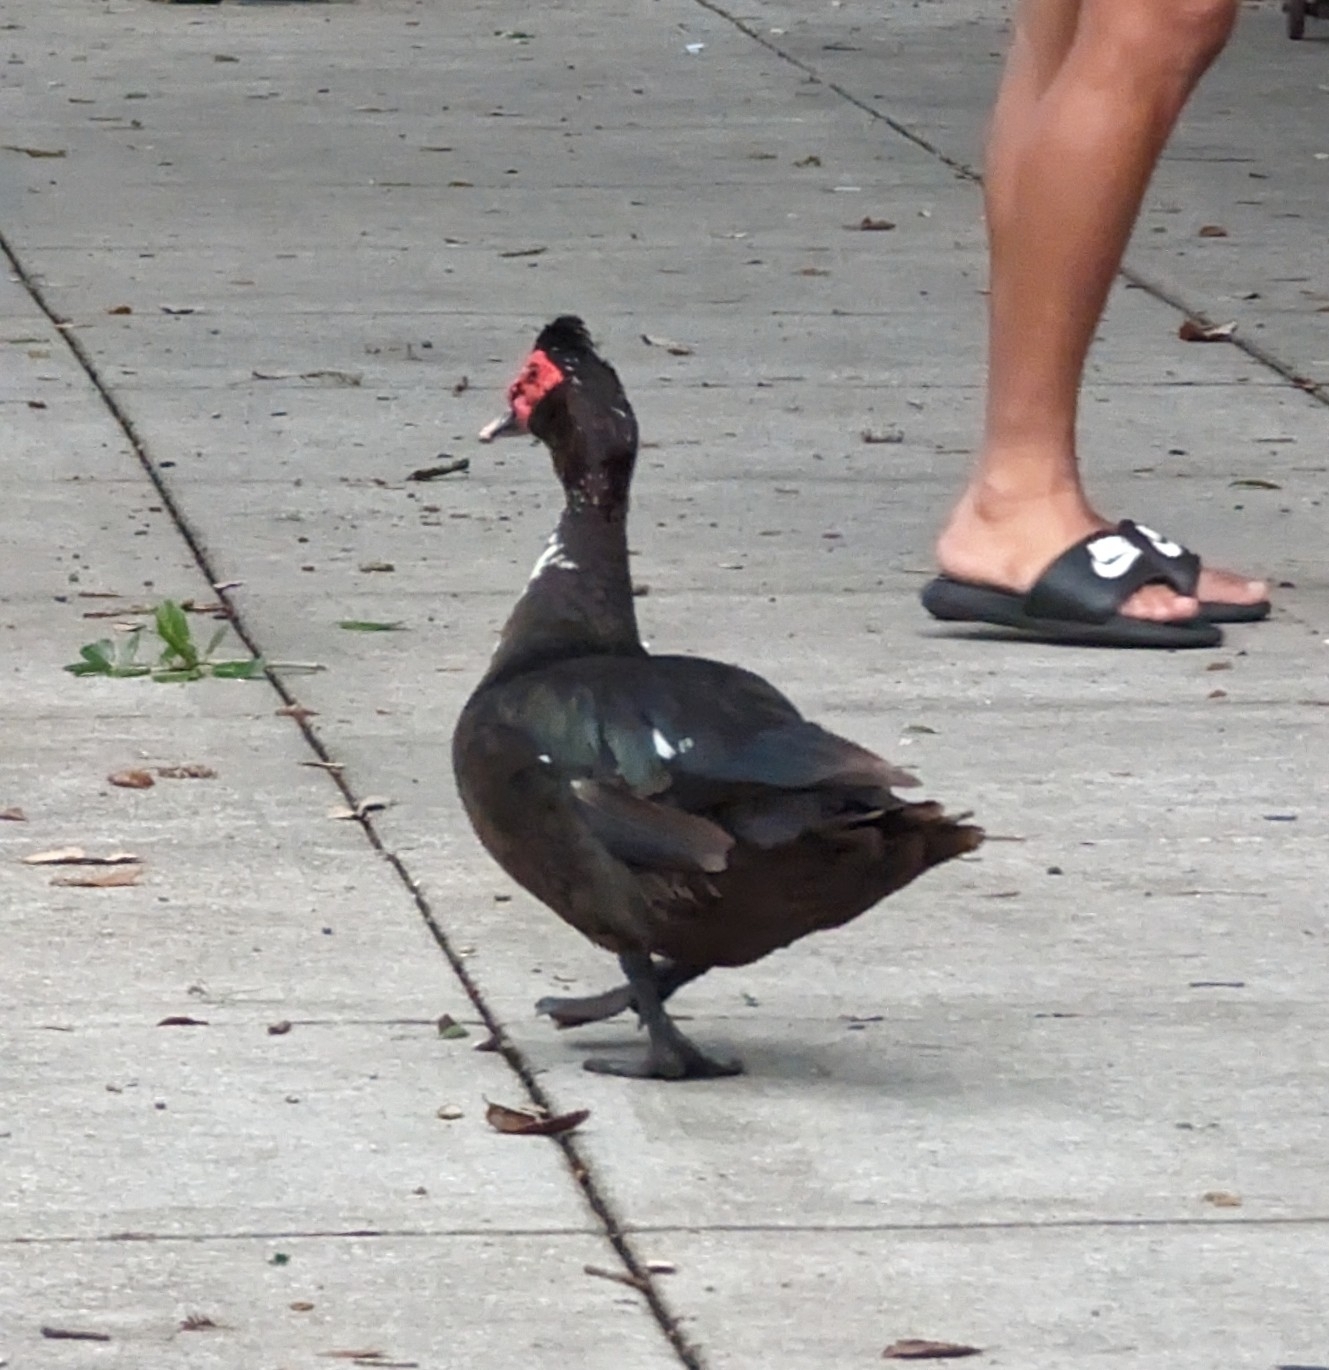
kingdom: Animalia
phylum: Chordata
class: Aves
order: Anseriformes
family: Anatidae
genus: Cairina
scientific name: Cairina moschata
